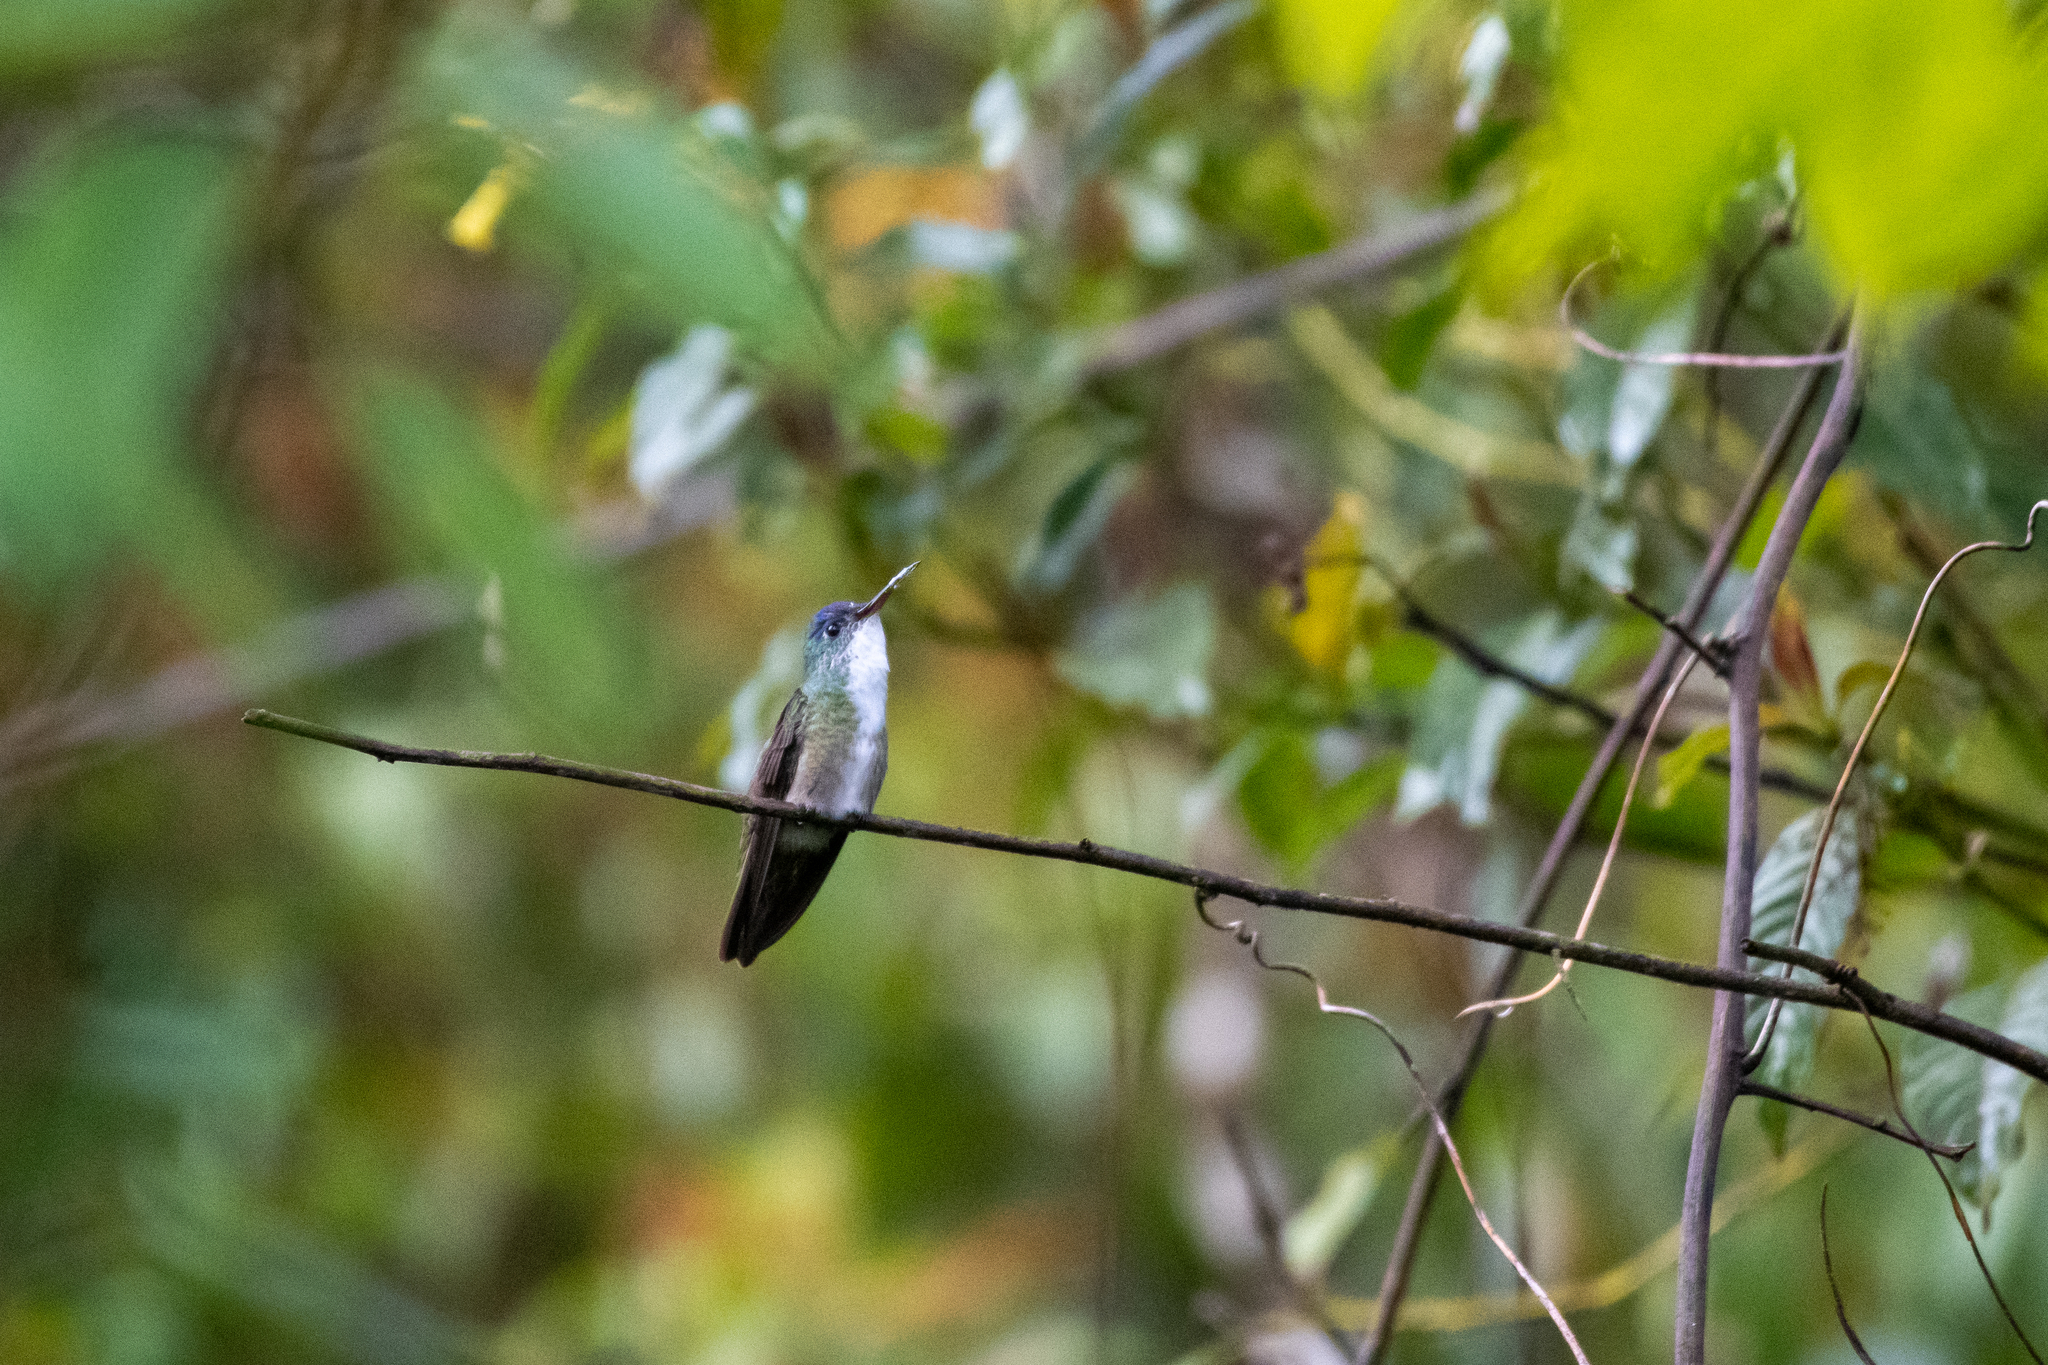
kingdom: Animalia
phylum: Chordata
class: Aves
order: Apodiformes
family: Trochilidae
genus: Saucerottia
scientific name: Saucerottia cyanocephala
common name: Azure-crowned hummingbird
